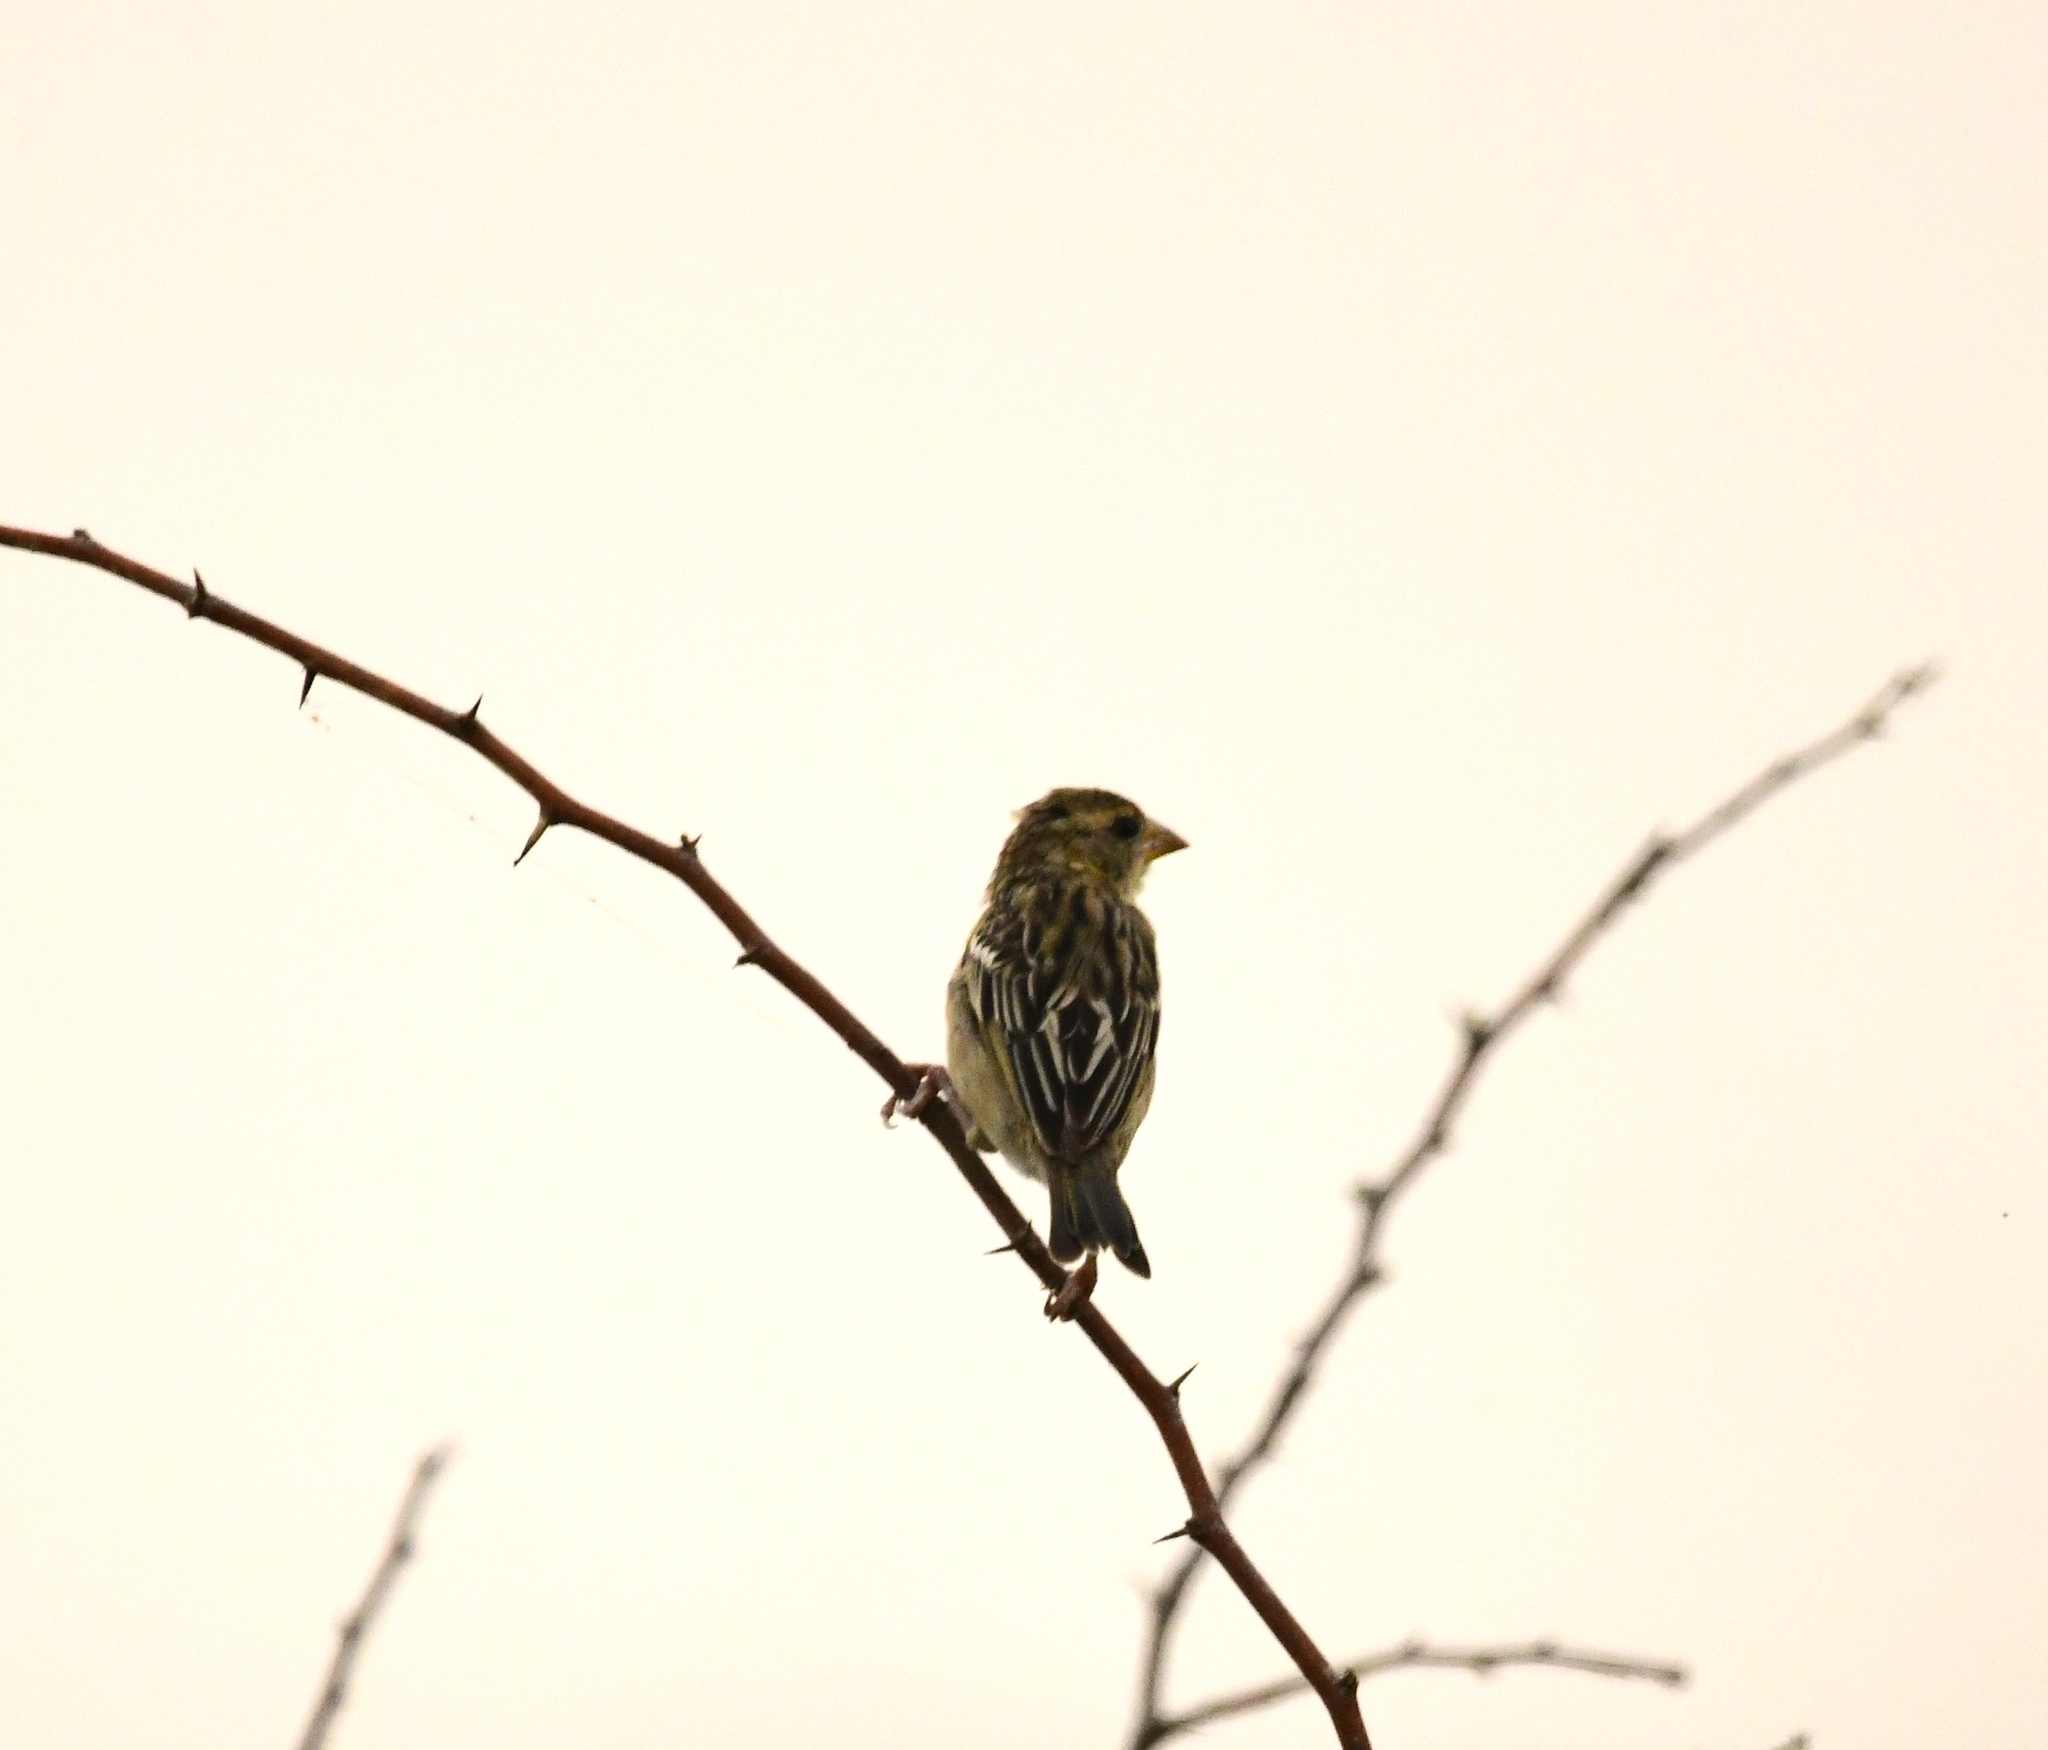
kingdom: Animalia
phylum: Chordata
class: Aves
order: Passeriformes
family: Ploceidae
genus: Ploceus
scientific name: Ploceus philippinus
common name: Baya weaver
